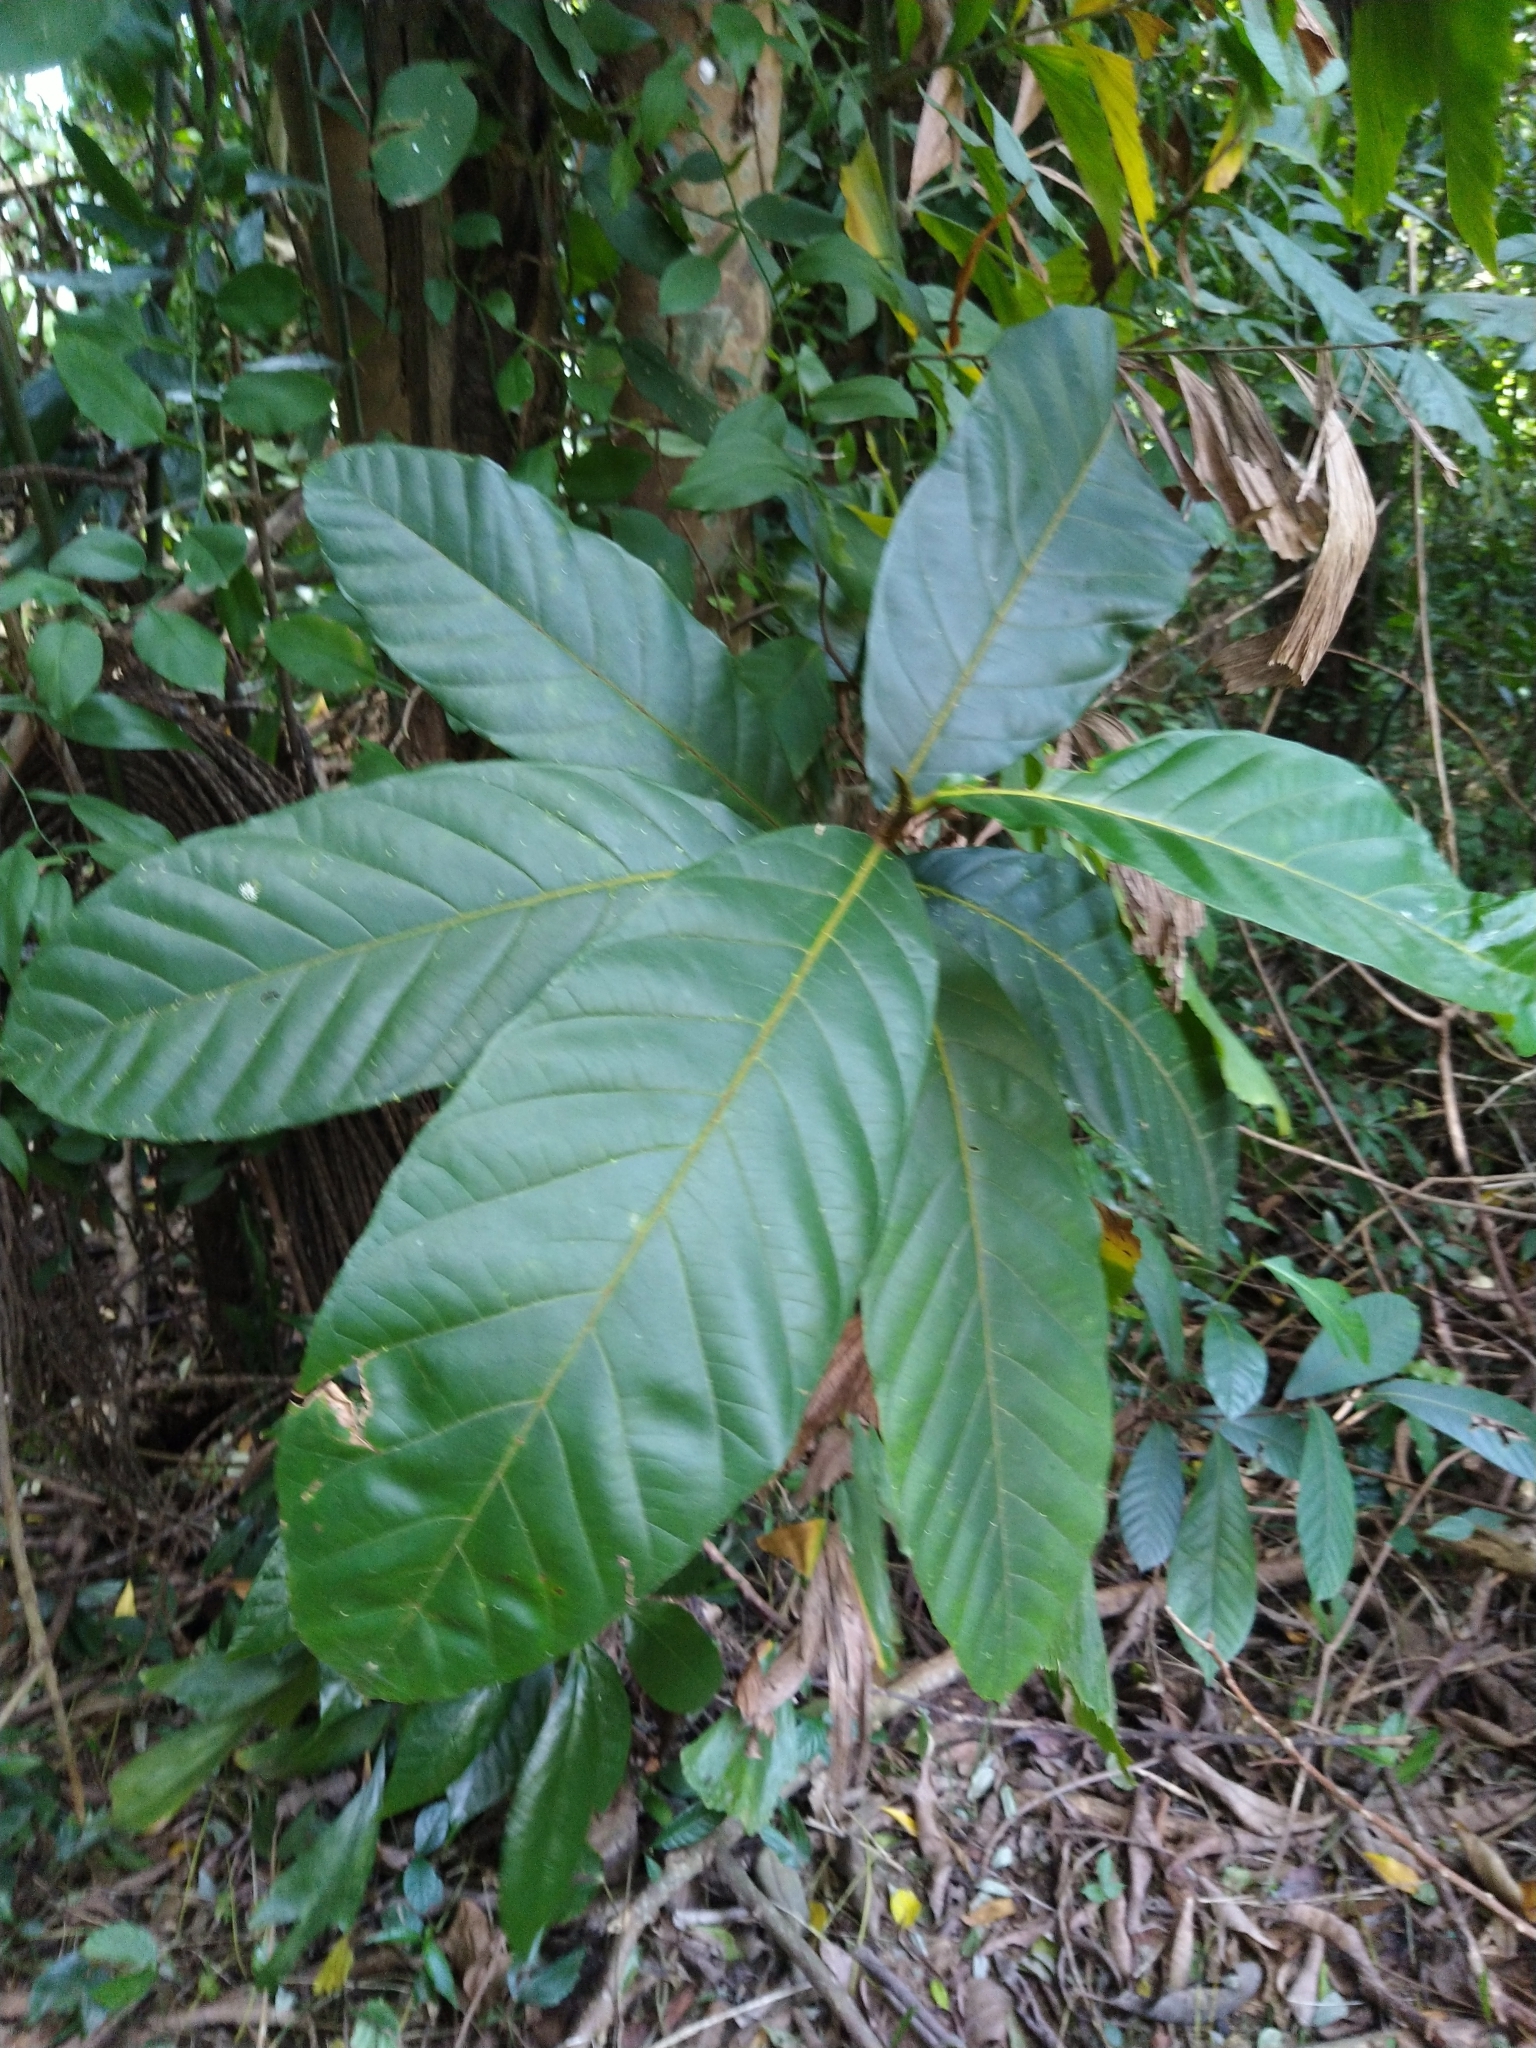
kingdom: Plantae
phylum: Tracheophyta
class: Magnoliopsida
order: Rosales
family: Moraceae
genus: Artocarpus
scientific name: Artocarpus hirsutus
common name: Hairy bread-fruit tree
